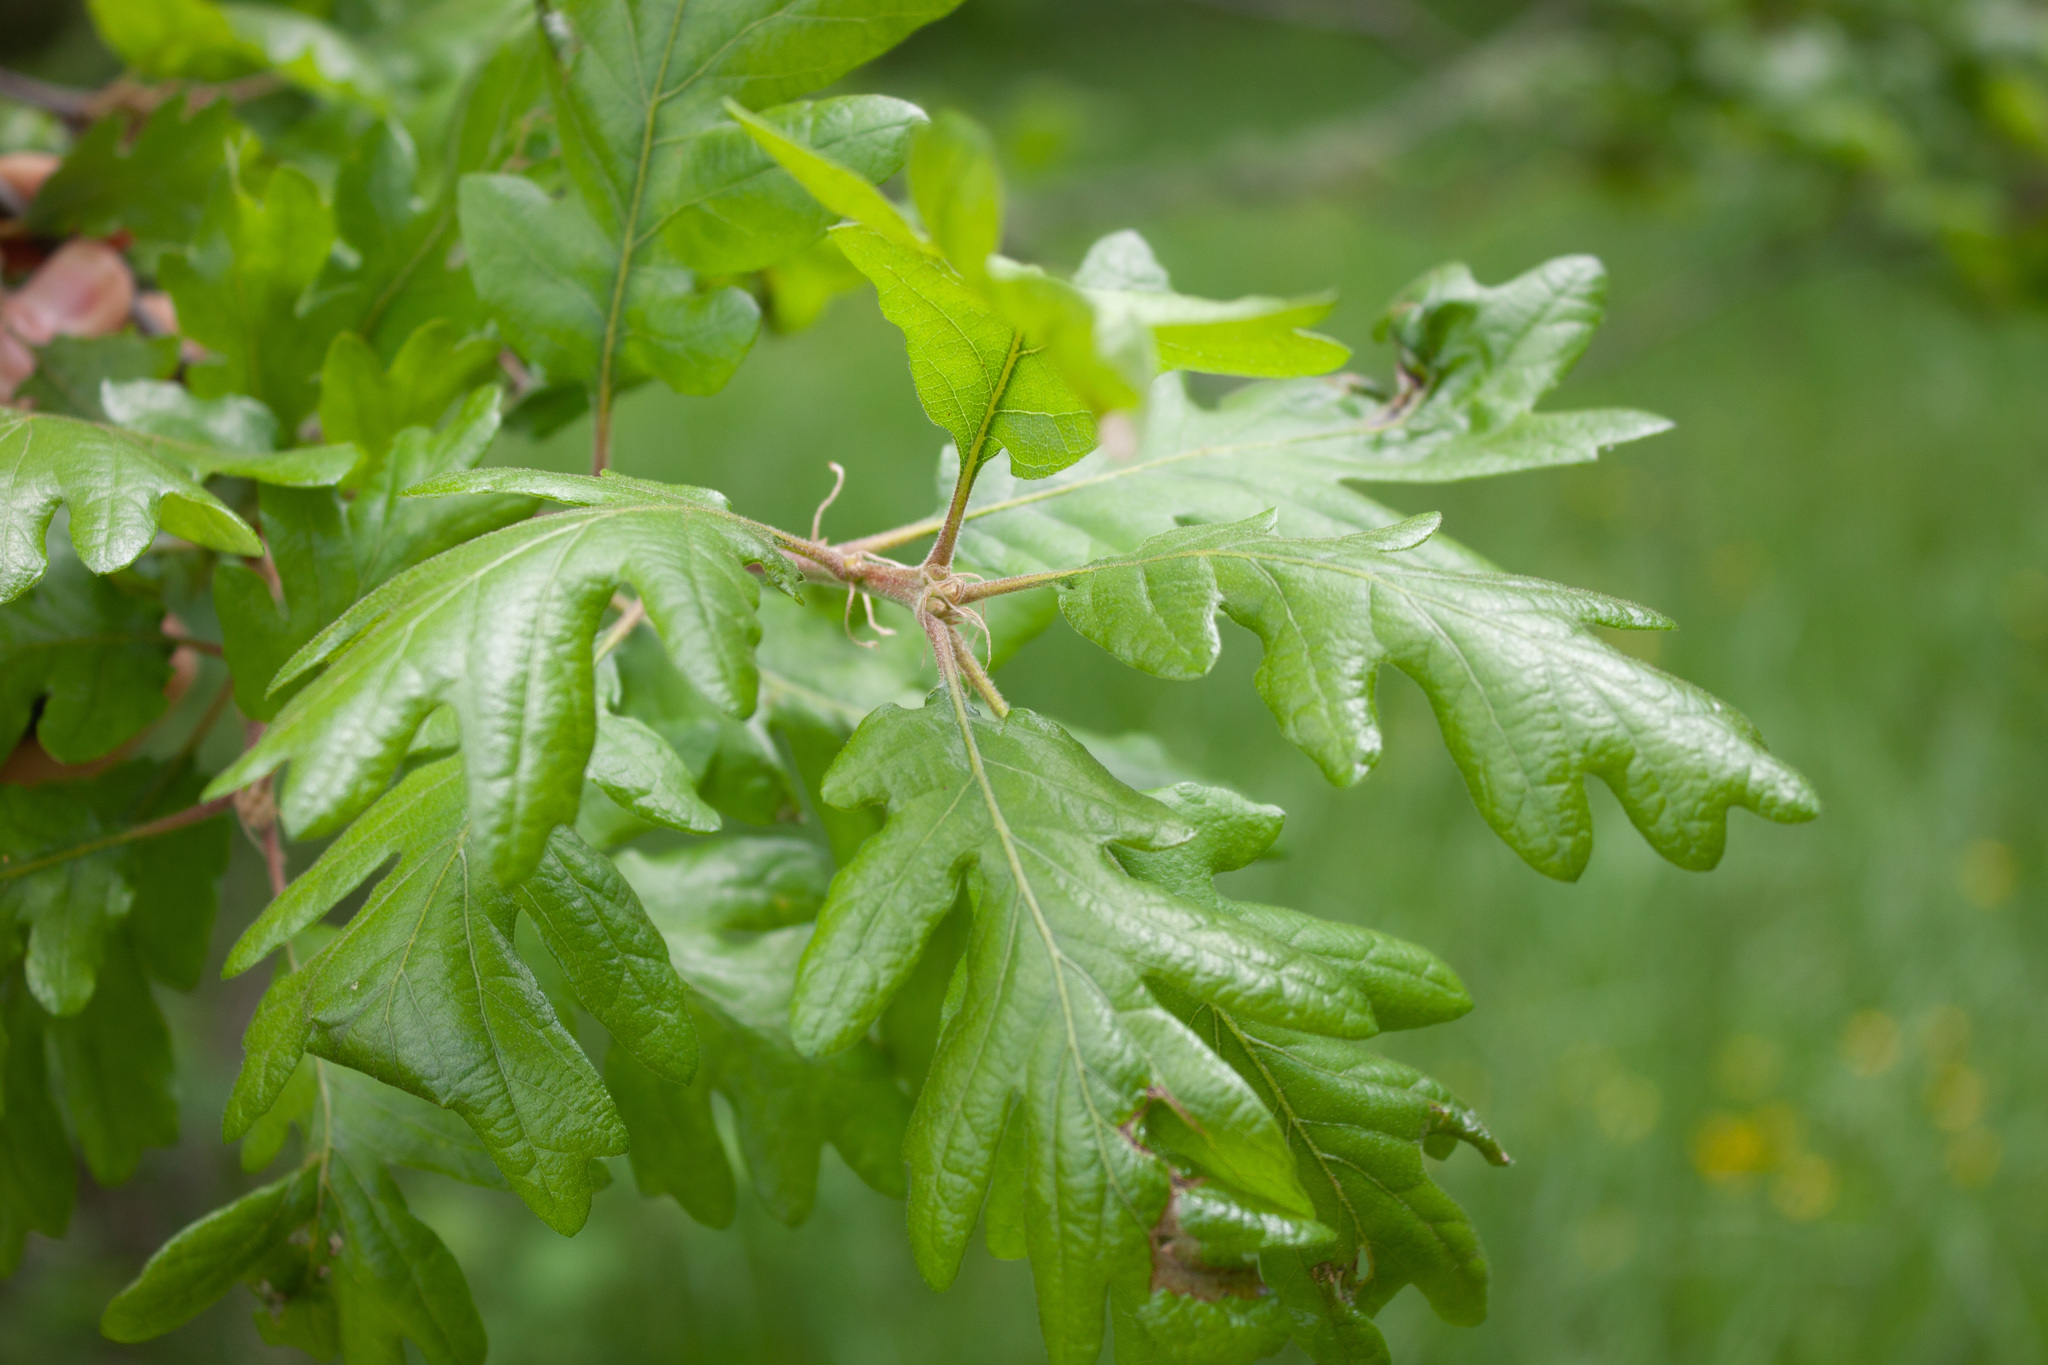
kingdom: Plantae
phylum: Tracheophyta
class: Magnoliopsida
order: Fagales
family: Fagaceae
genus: Quercus
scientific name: Quercus garryana
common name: Garry oak
